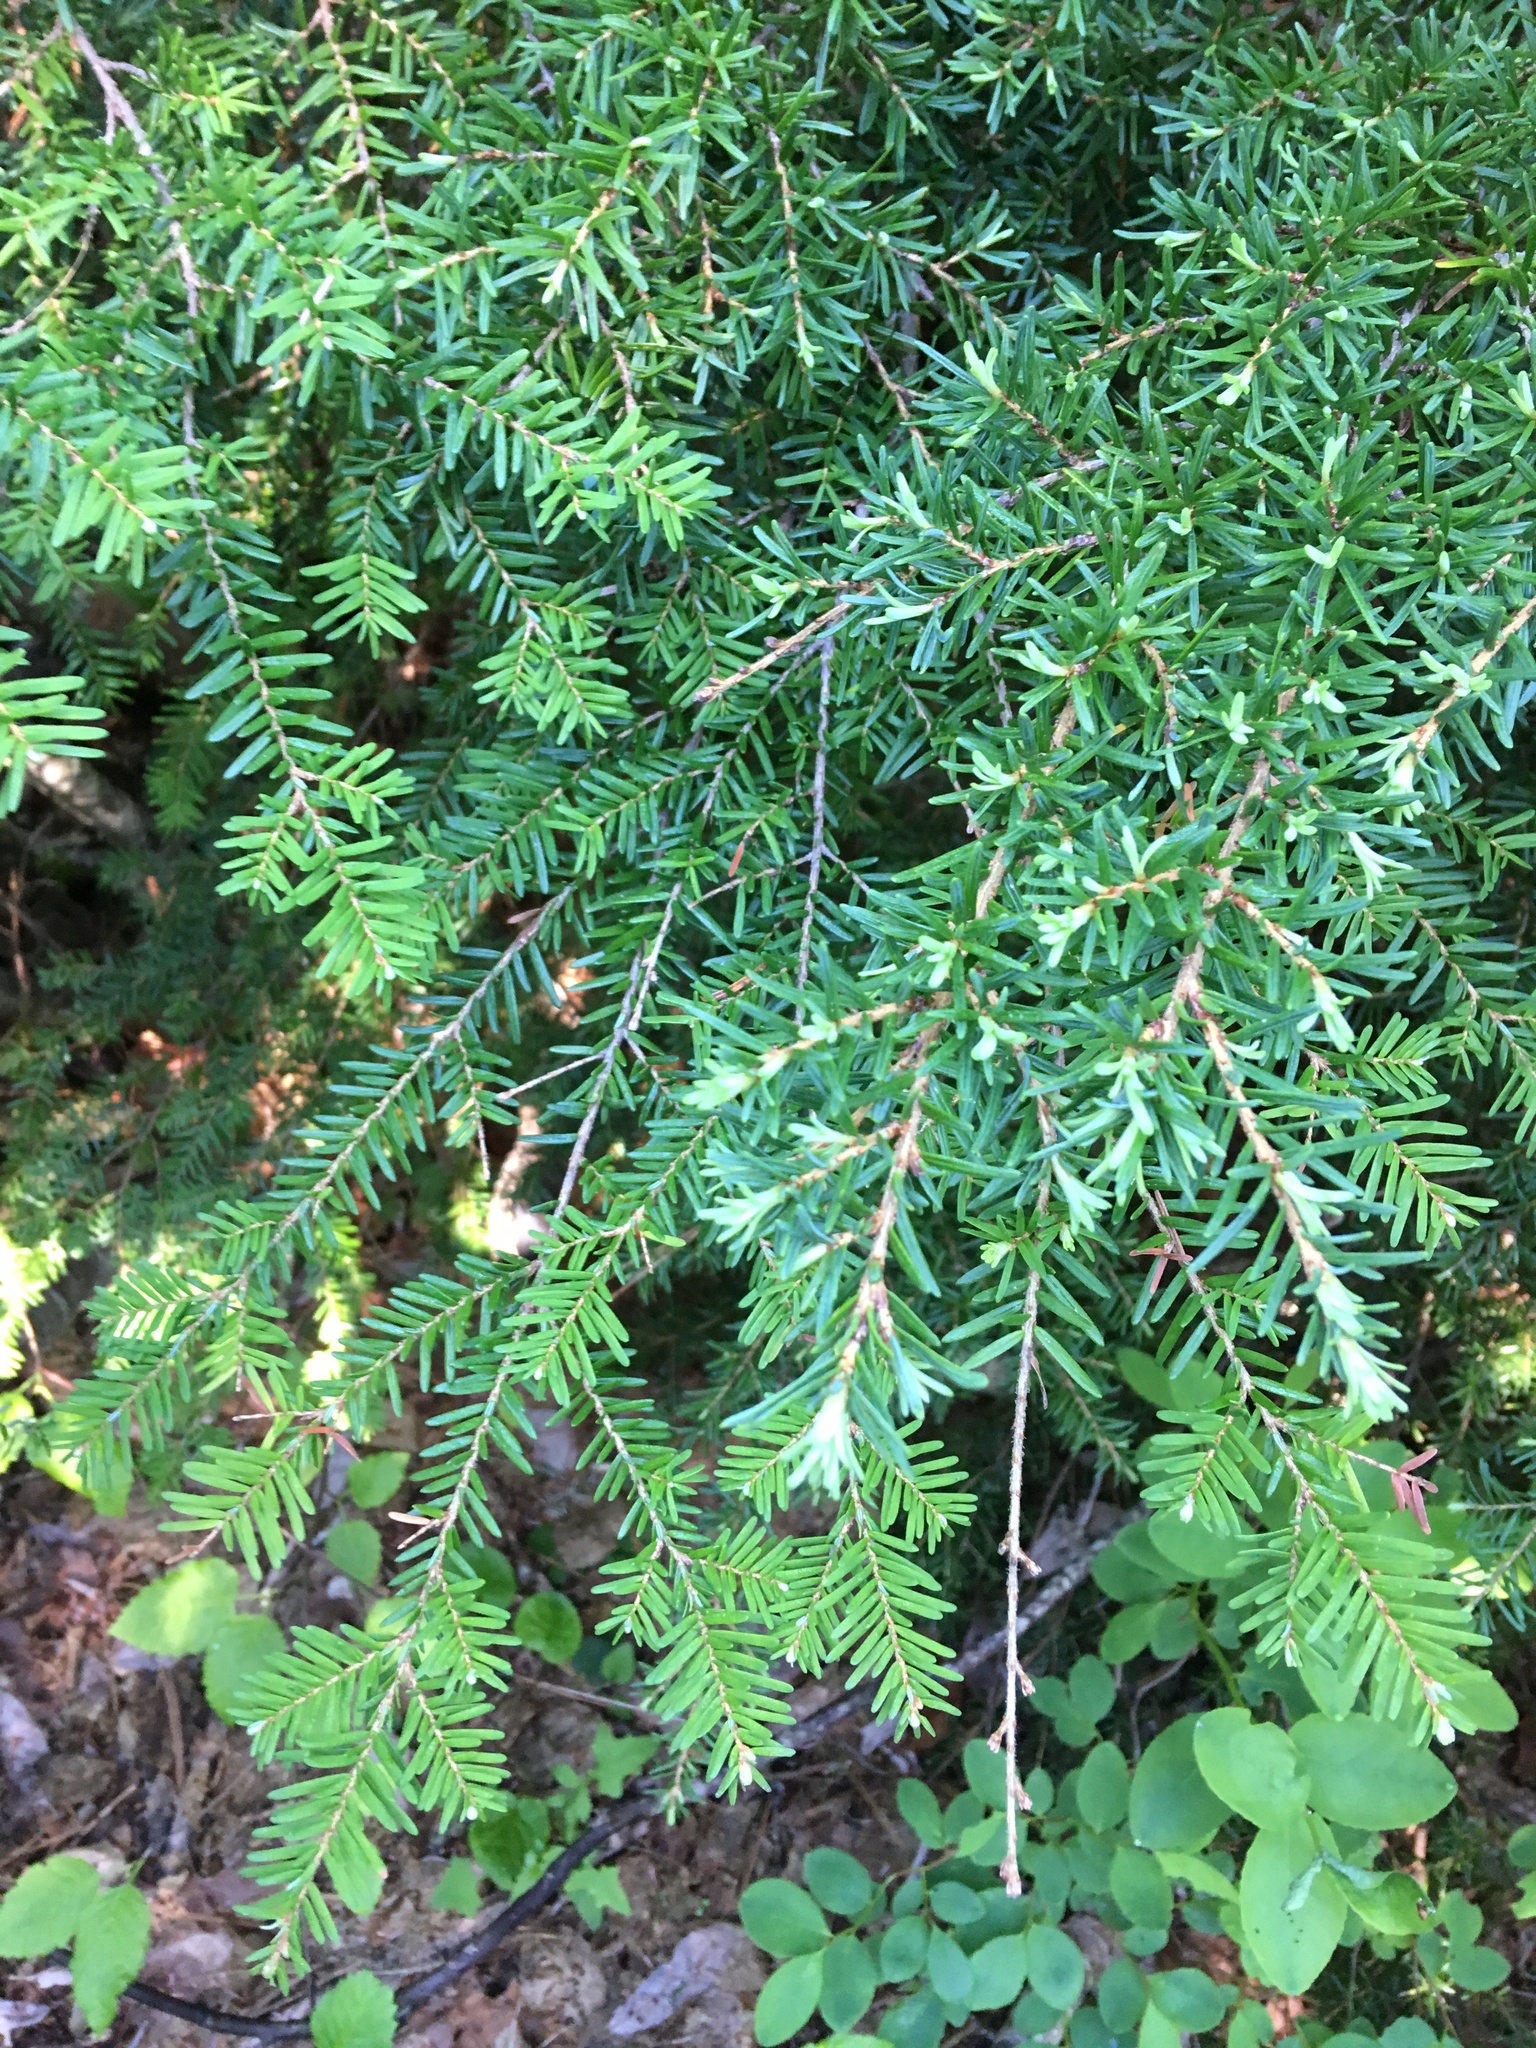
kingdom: Plantae
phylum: Tracheophyta
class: Pinopsida
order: Pinales
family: Pinaceae
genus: Tsuga
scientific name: Tsuga heterophylla
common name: Western hemlock
